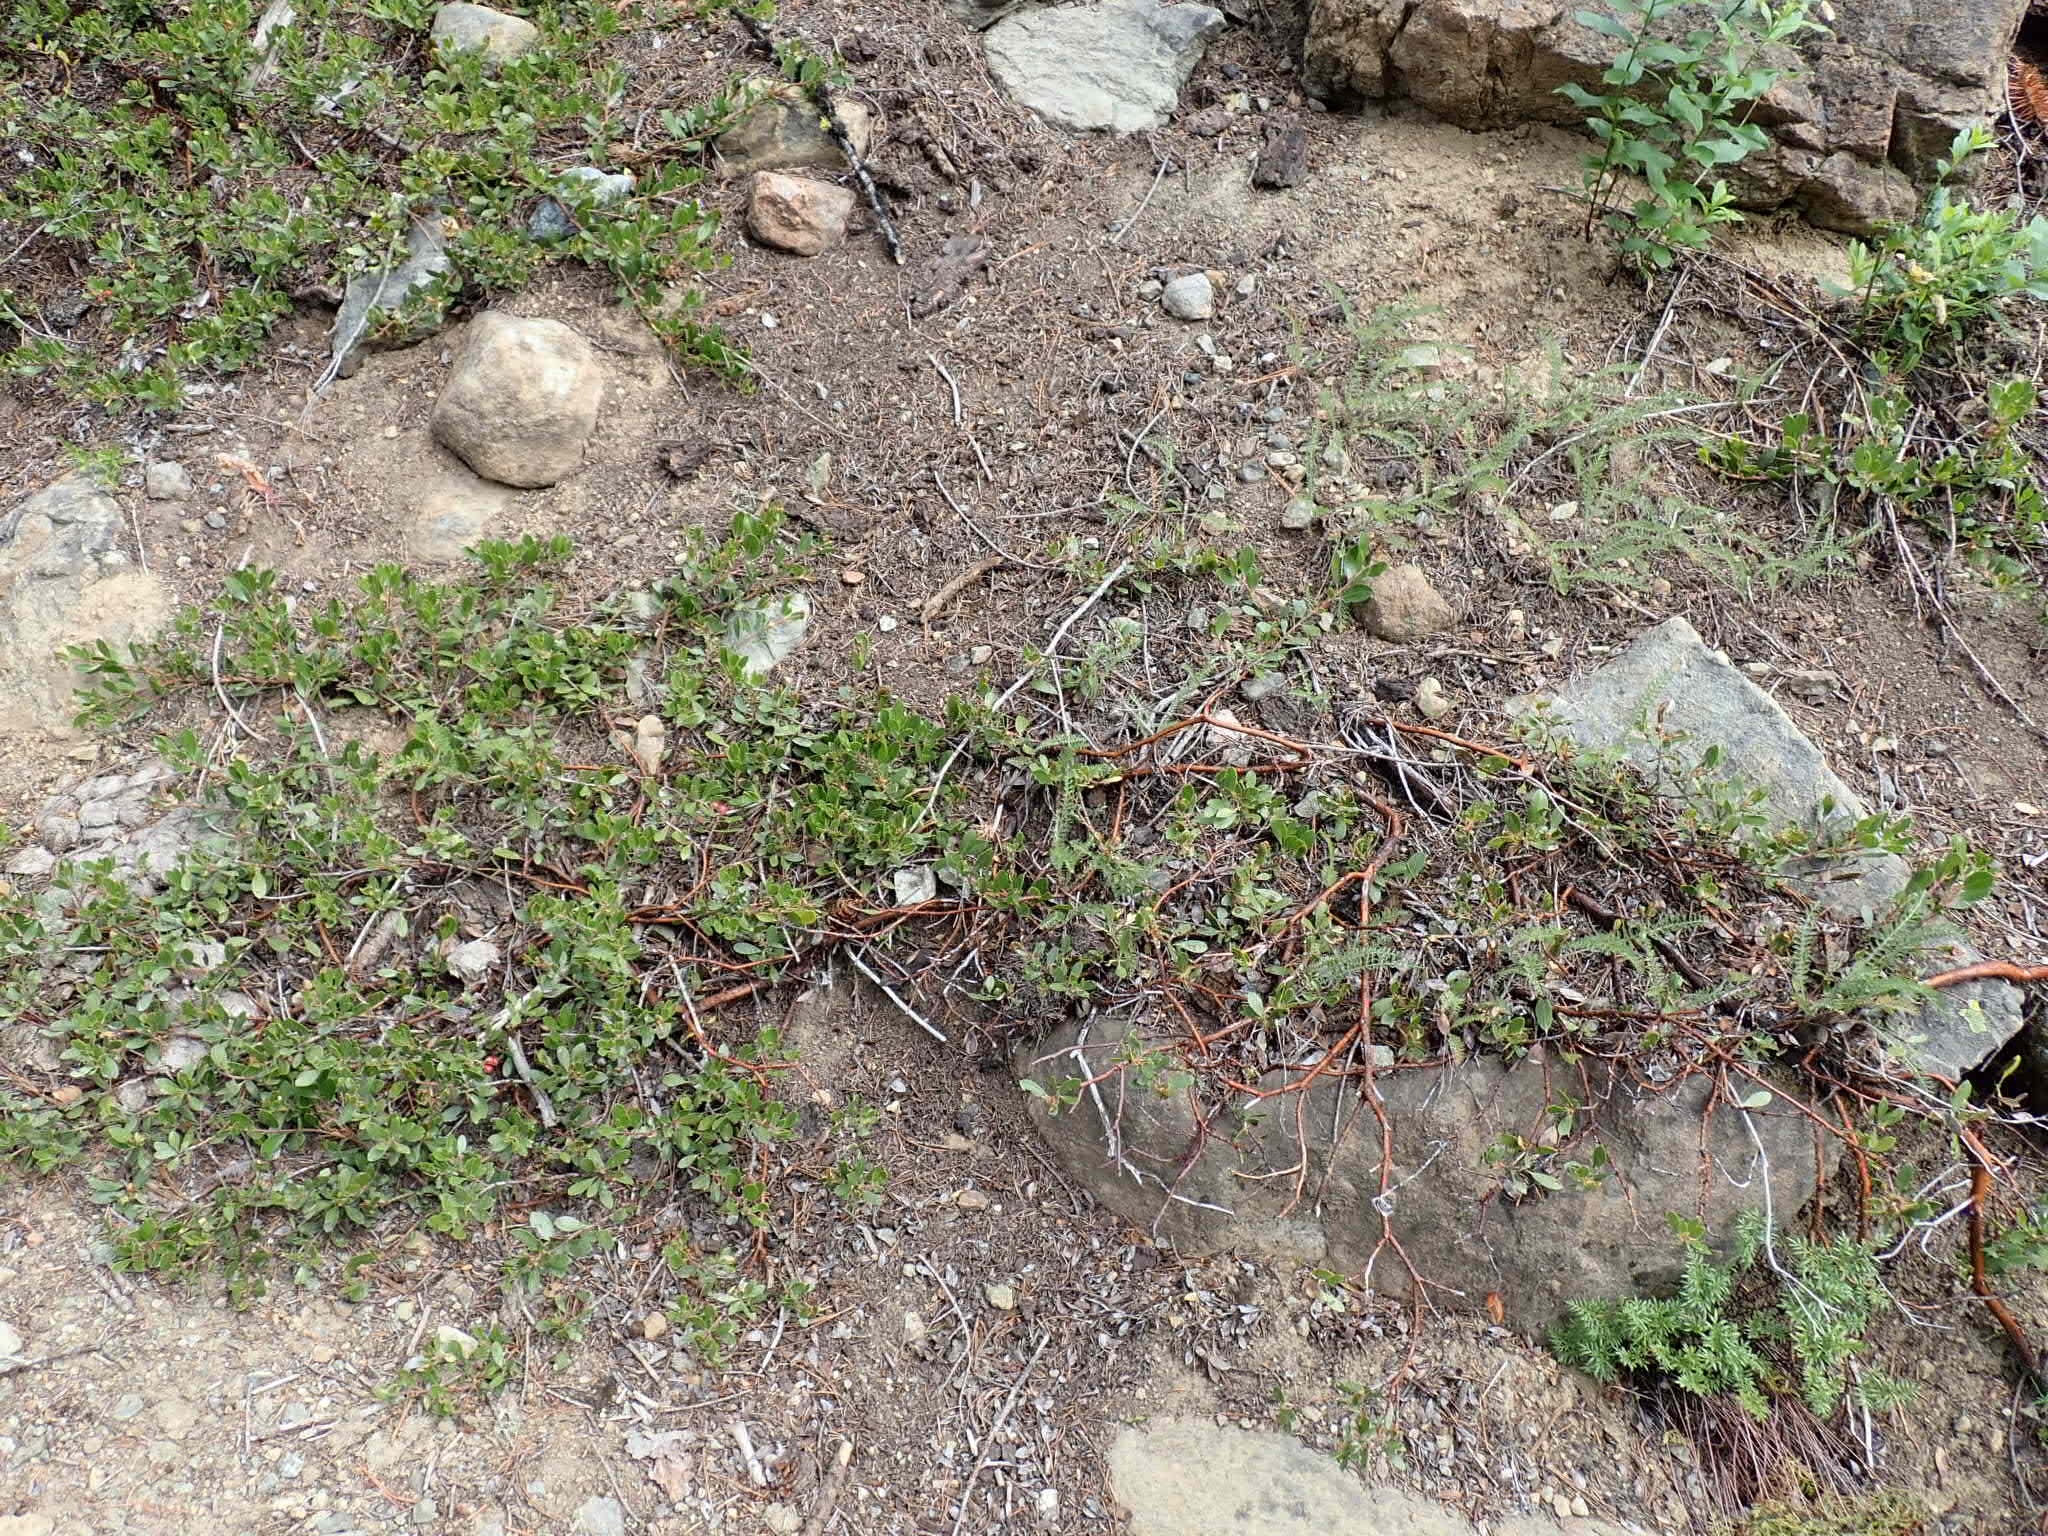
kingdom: Plantae
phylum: Tracheophyta
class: Magnoliopsida
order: Ericales
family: Ericaceae
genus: Arctostaphylos
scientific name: Arctostaphylos nevadensis
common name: Pinemat manzanita
